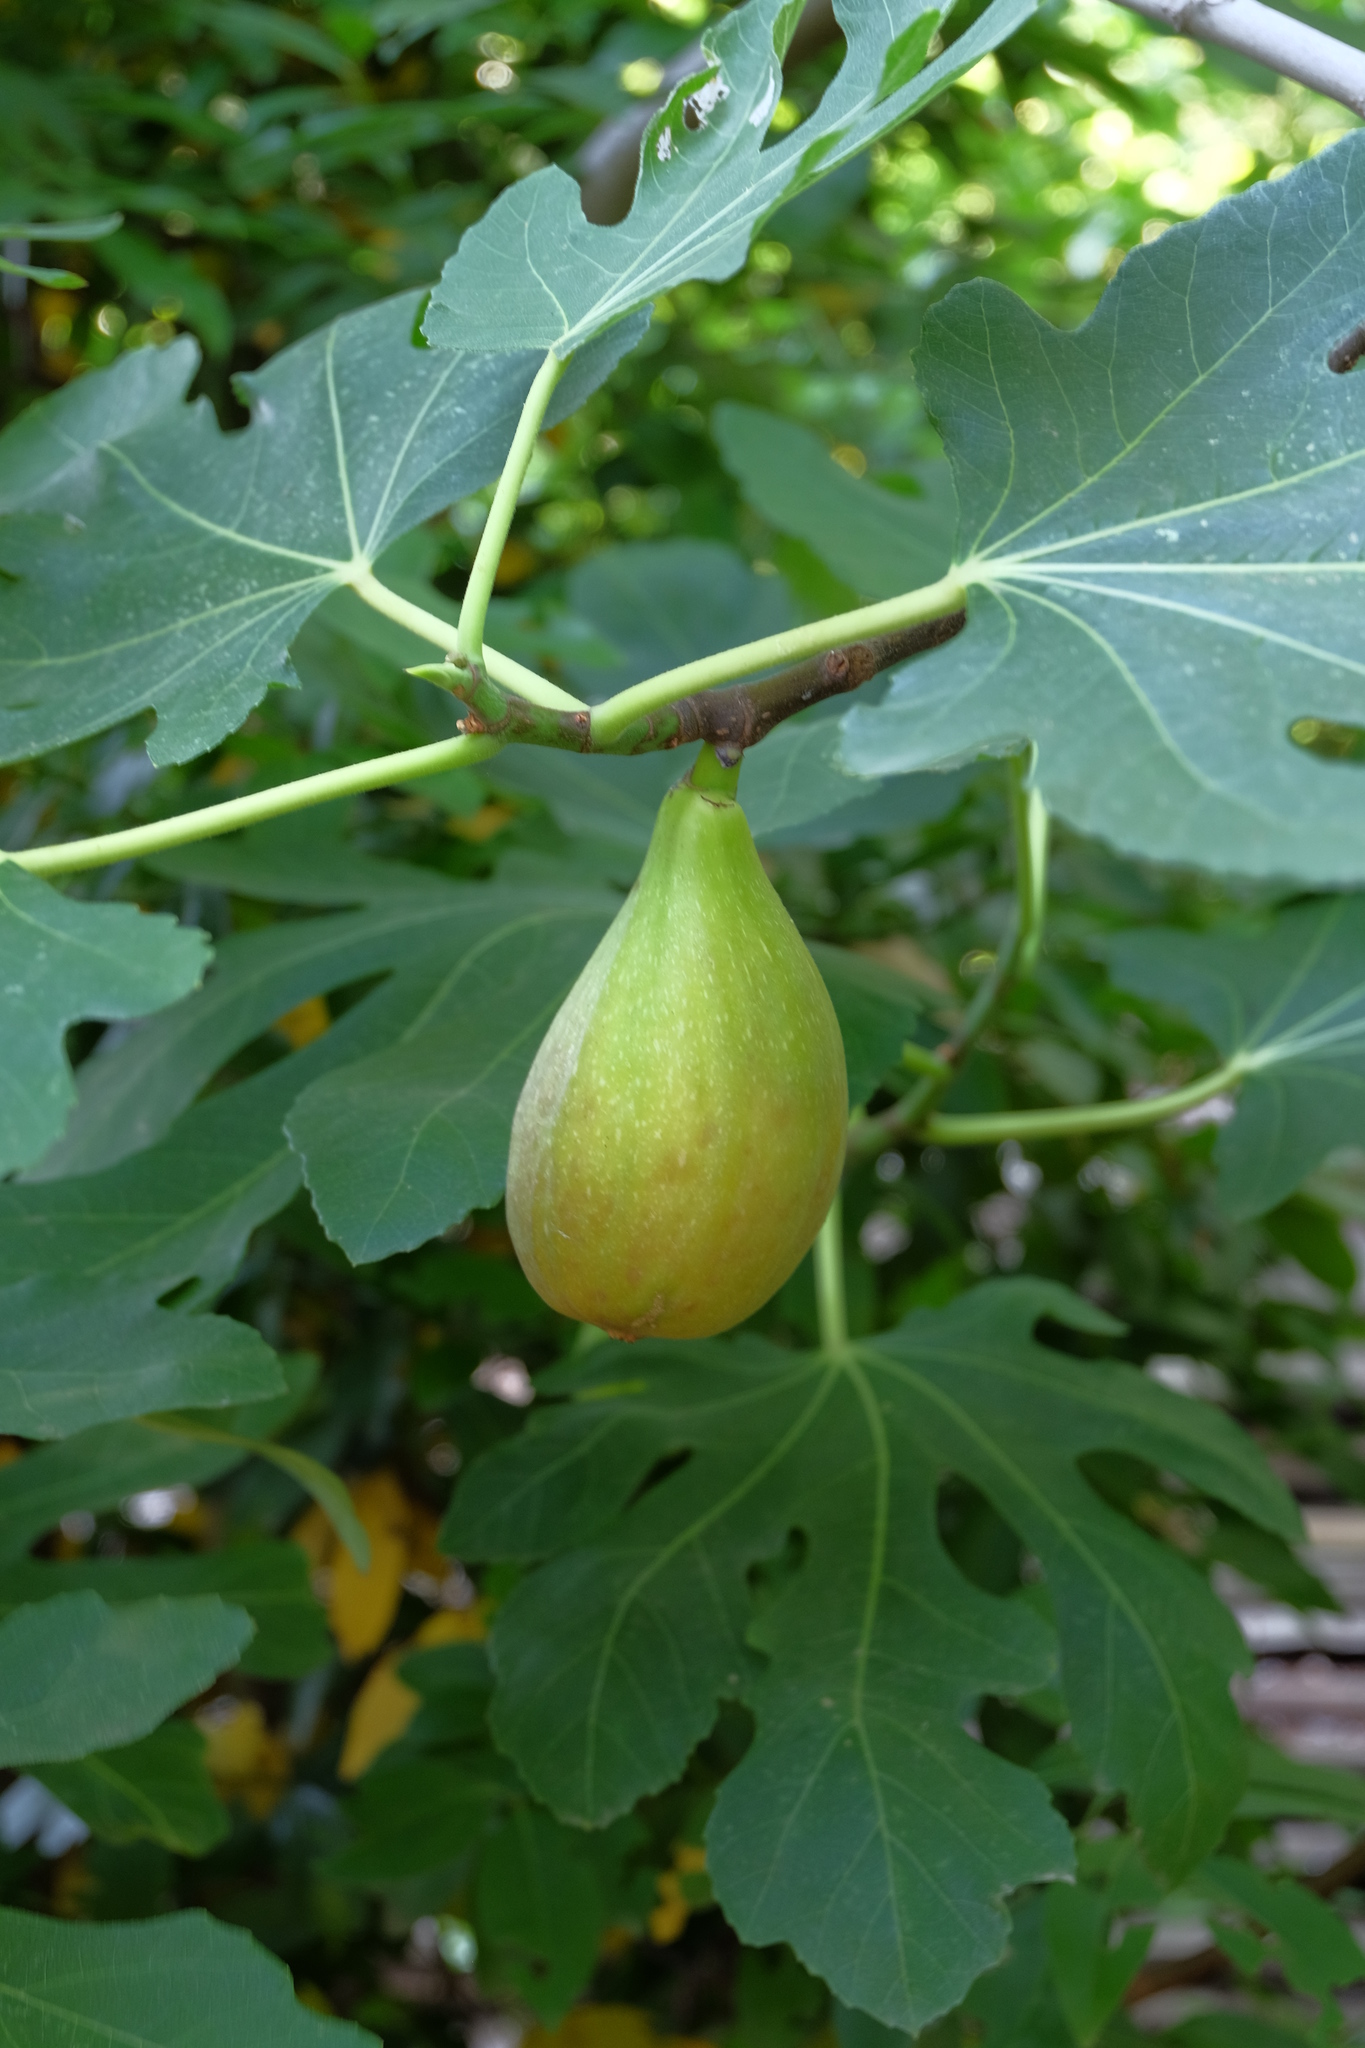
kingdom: Plantae
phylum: Tracheophyta
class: Magnoliopsida
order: Rosales
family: Moraceae
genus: Ficus
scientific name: Ficus carica
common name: Fig
